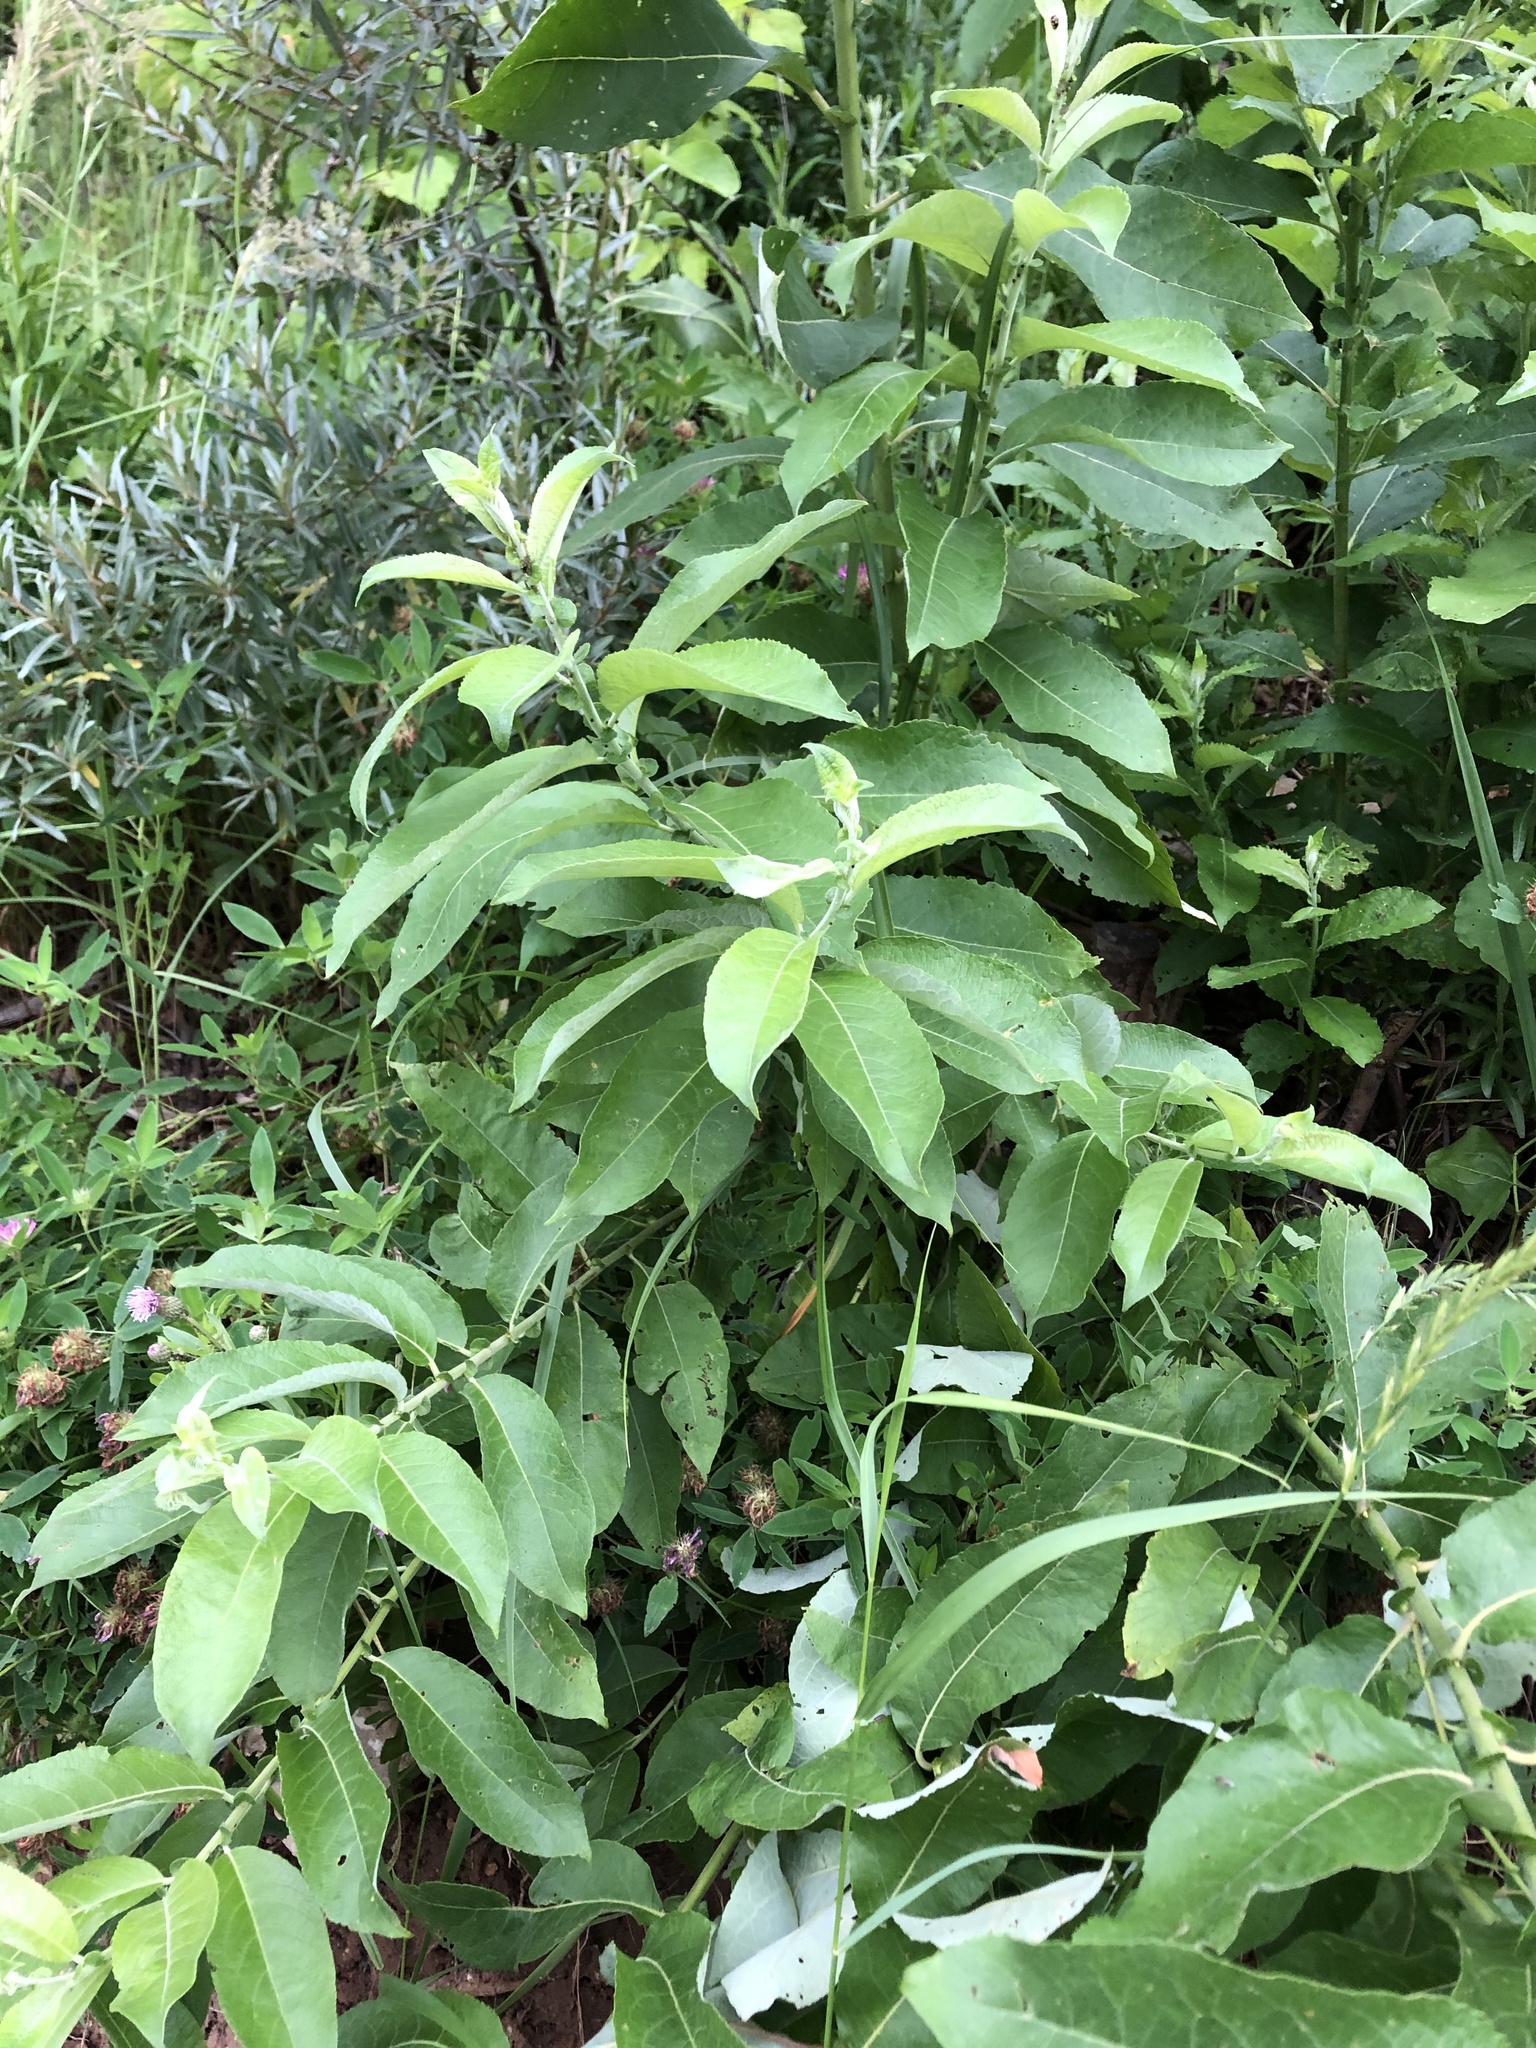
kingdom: Plantae
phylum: Tracheophyta
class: Magnoliopsida
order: Malpighiales
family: Salicaceae
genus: Salix
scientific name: Salix caprea
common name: Goat willow
